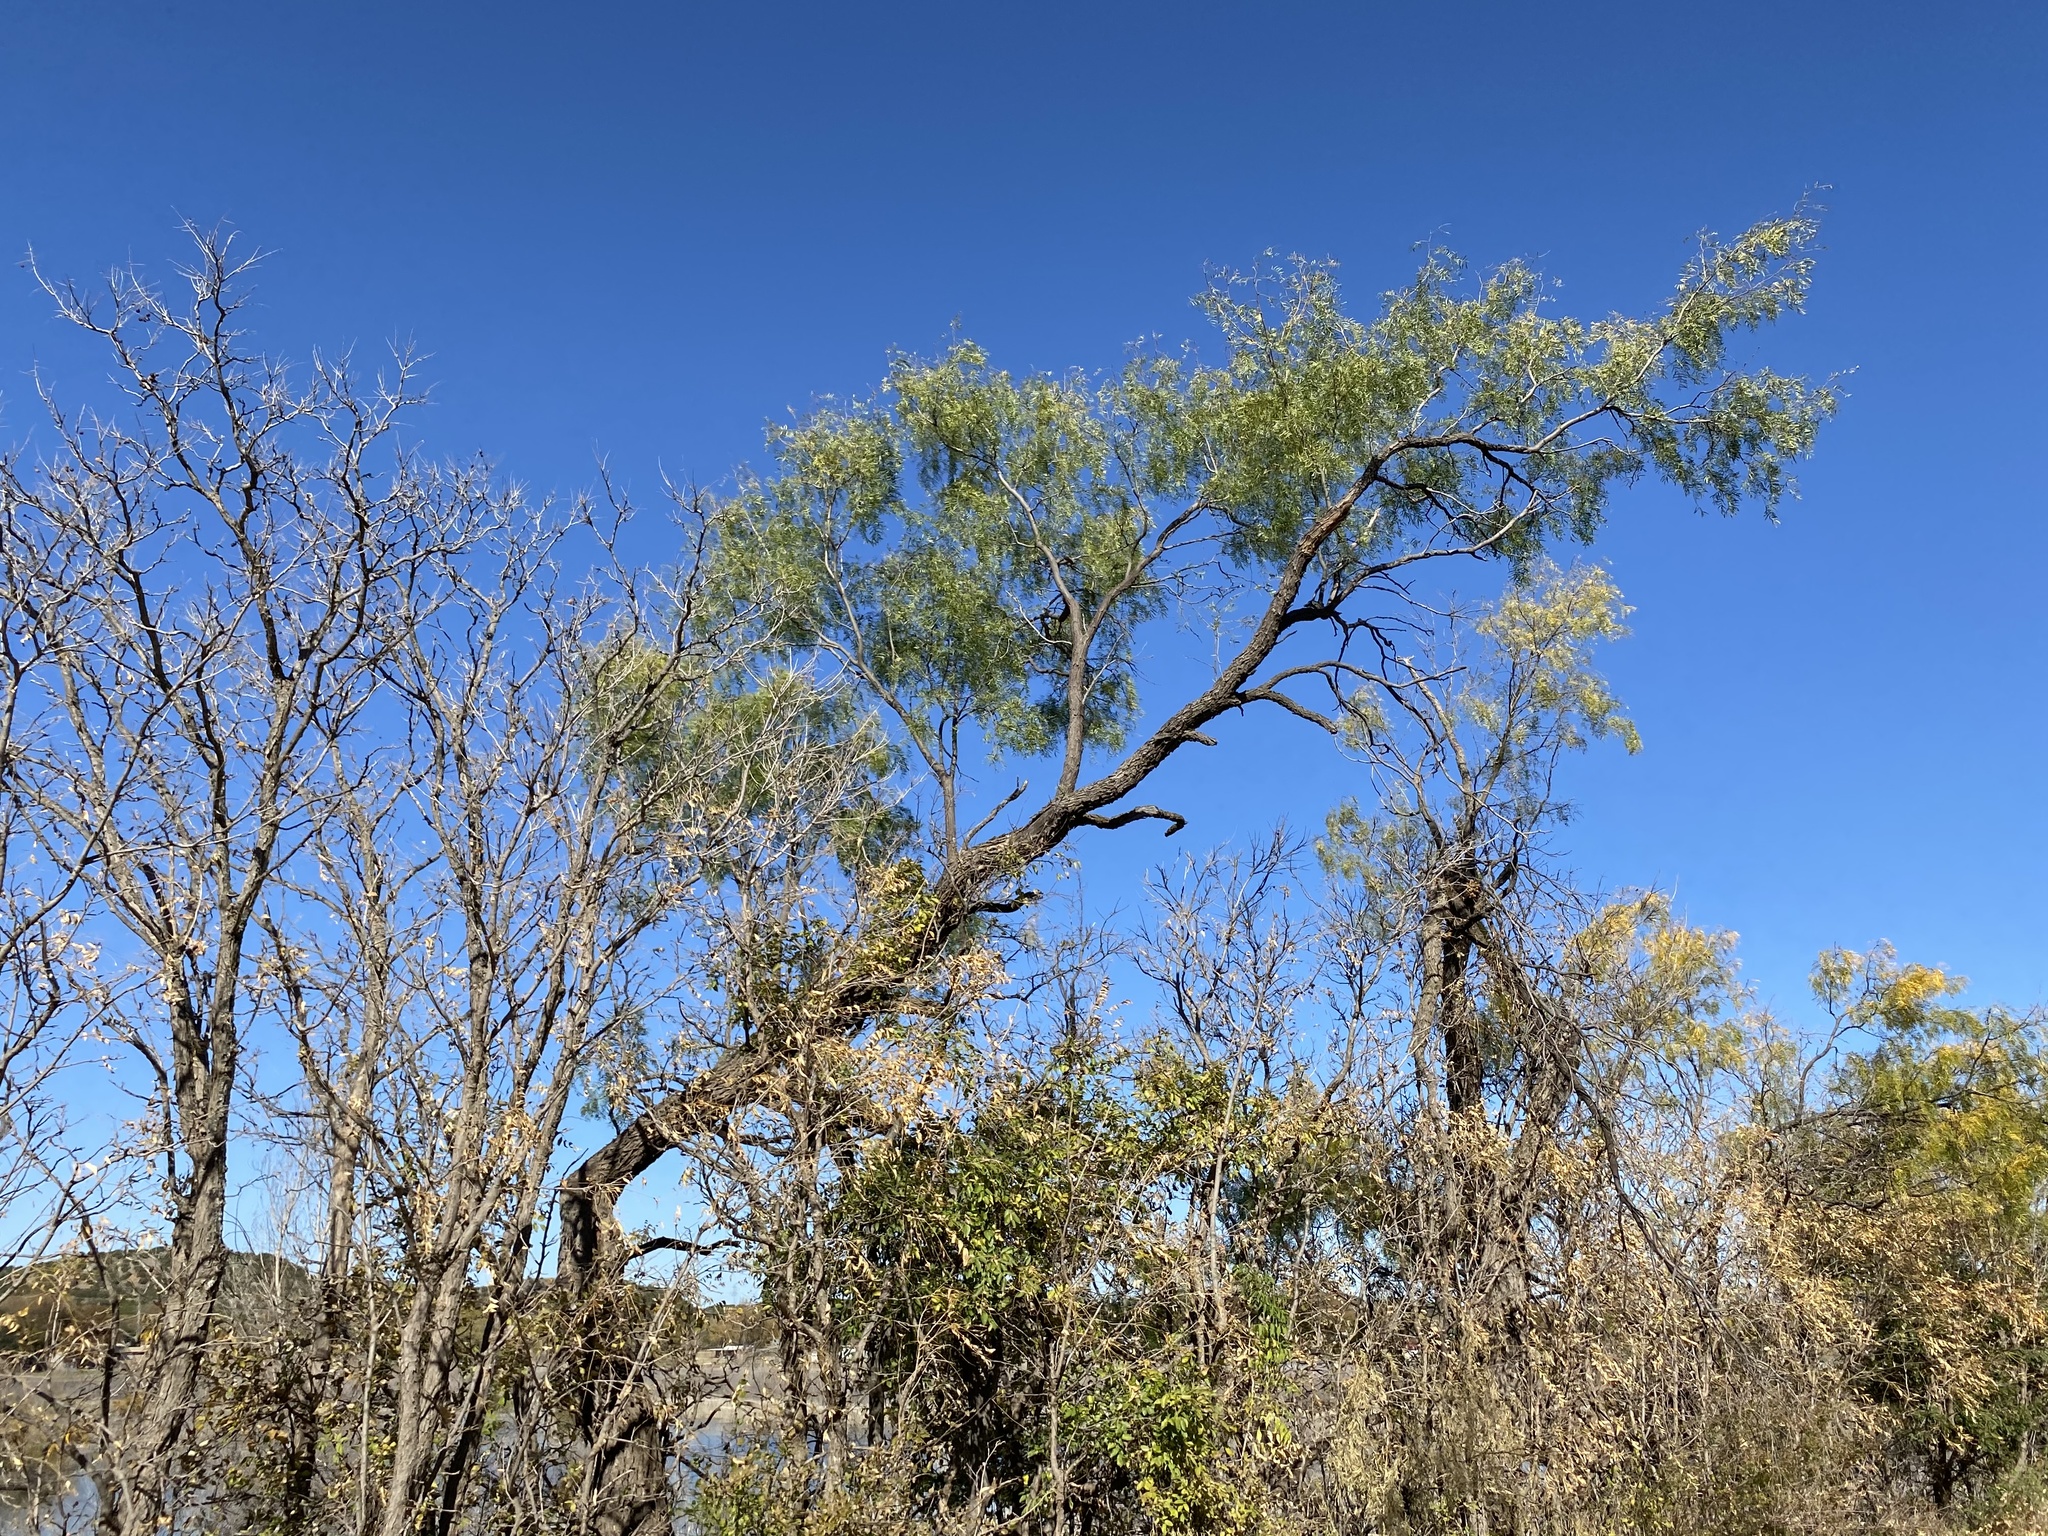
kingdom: Plantae
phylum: Tracheophyta
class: Magnoliopsida
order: Fabales
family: Fabaceae
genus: Prosopis
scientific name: Prosopis glandulosa
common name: Honey mesquite
